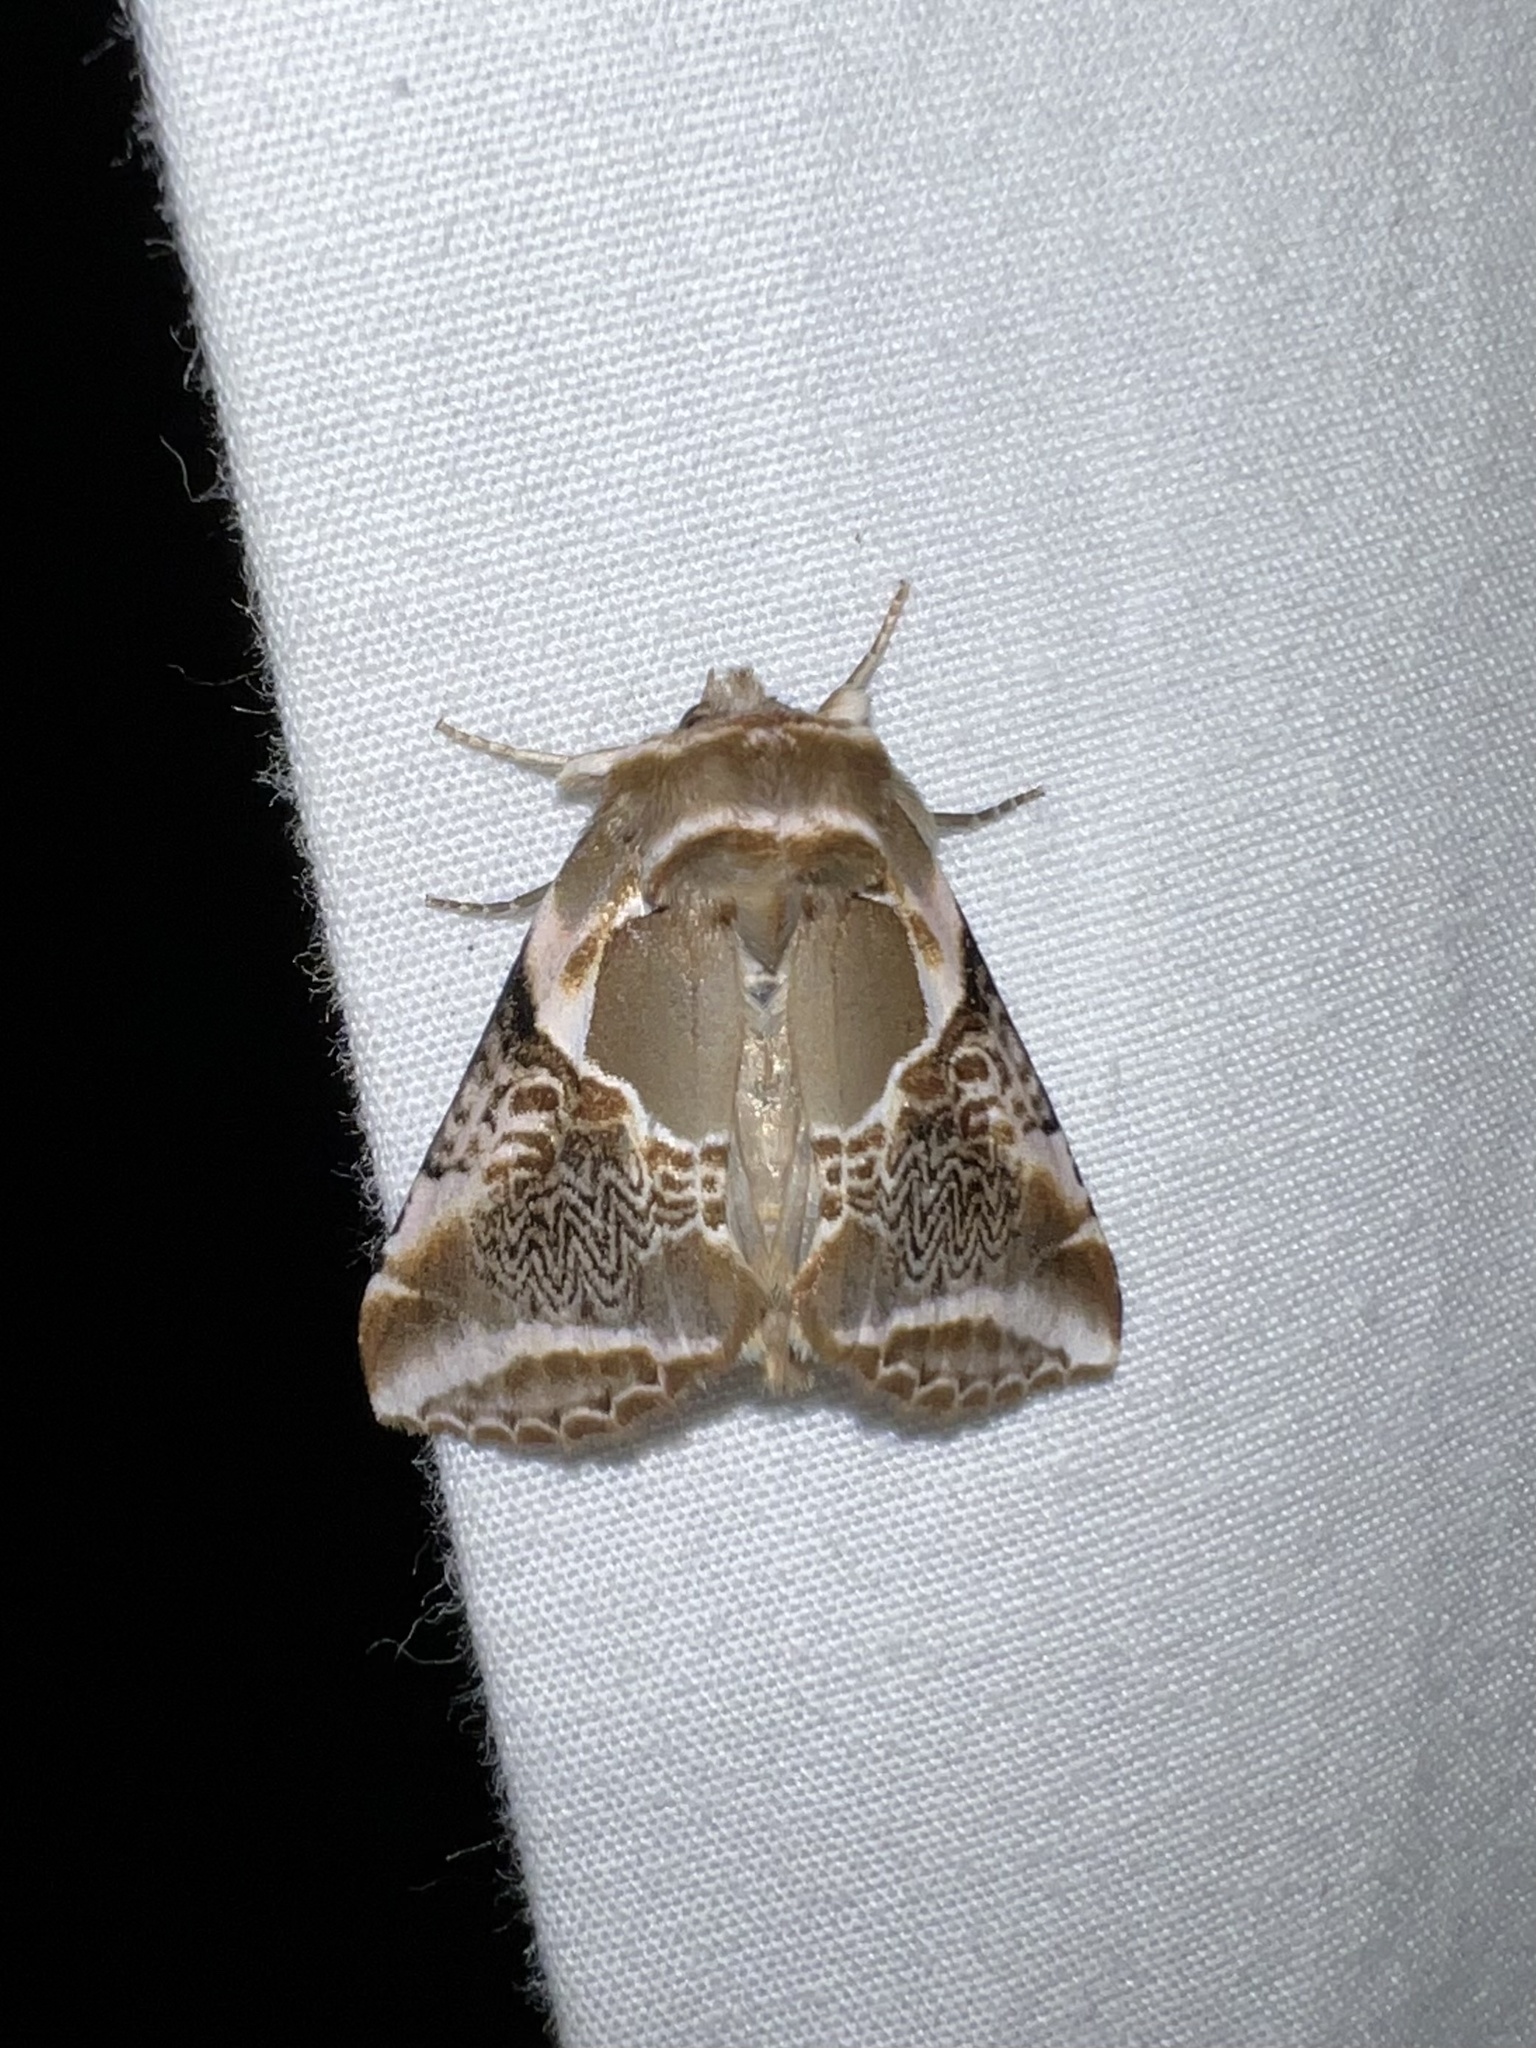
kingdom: Animalia
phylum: Arthropoda
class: Insecta
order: Lepidoptera
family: Drepanidae
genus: Habrosyne
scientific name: Habrosyne scripta
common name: Lettered habrosyne moth
